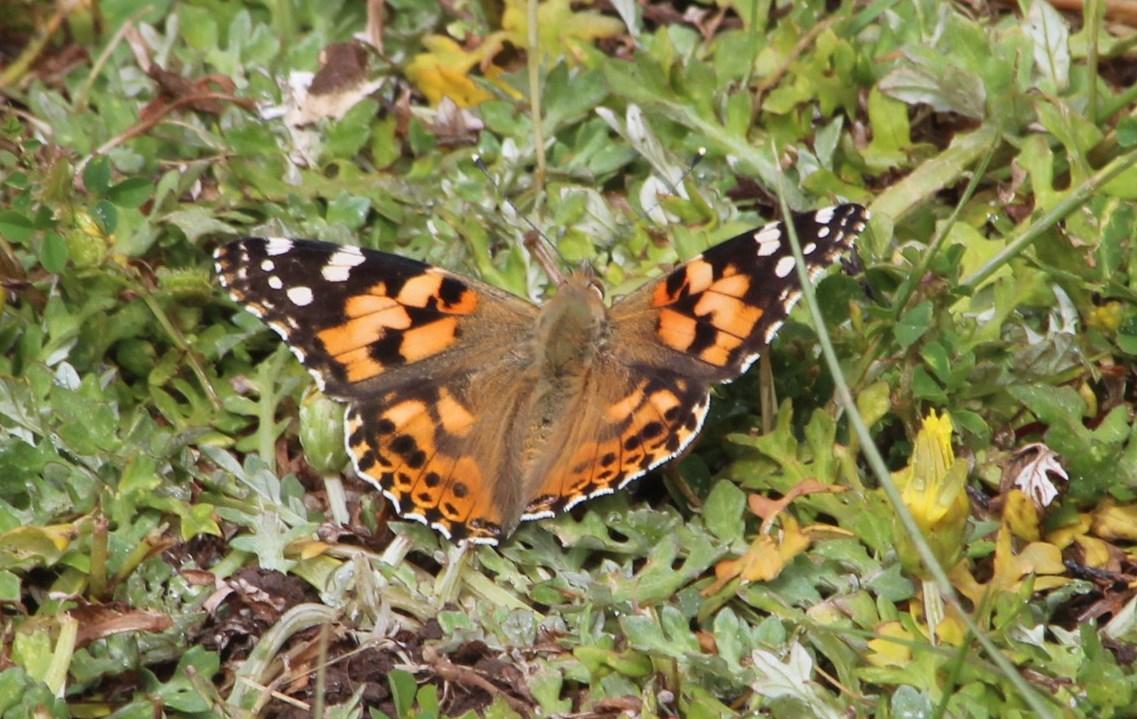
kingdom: Animalia
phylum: Arthropoda
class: Insecta
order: Lepidoptera
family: Nymphalidae
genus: Vanessa
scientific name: Vanessa cardui
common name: Painted lady
